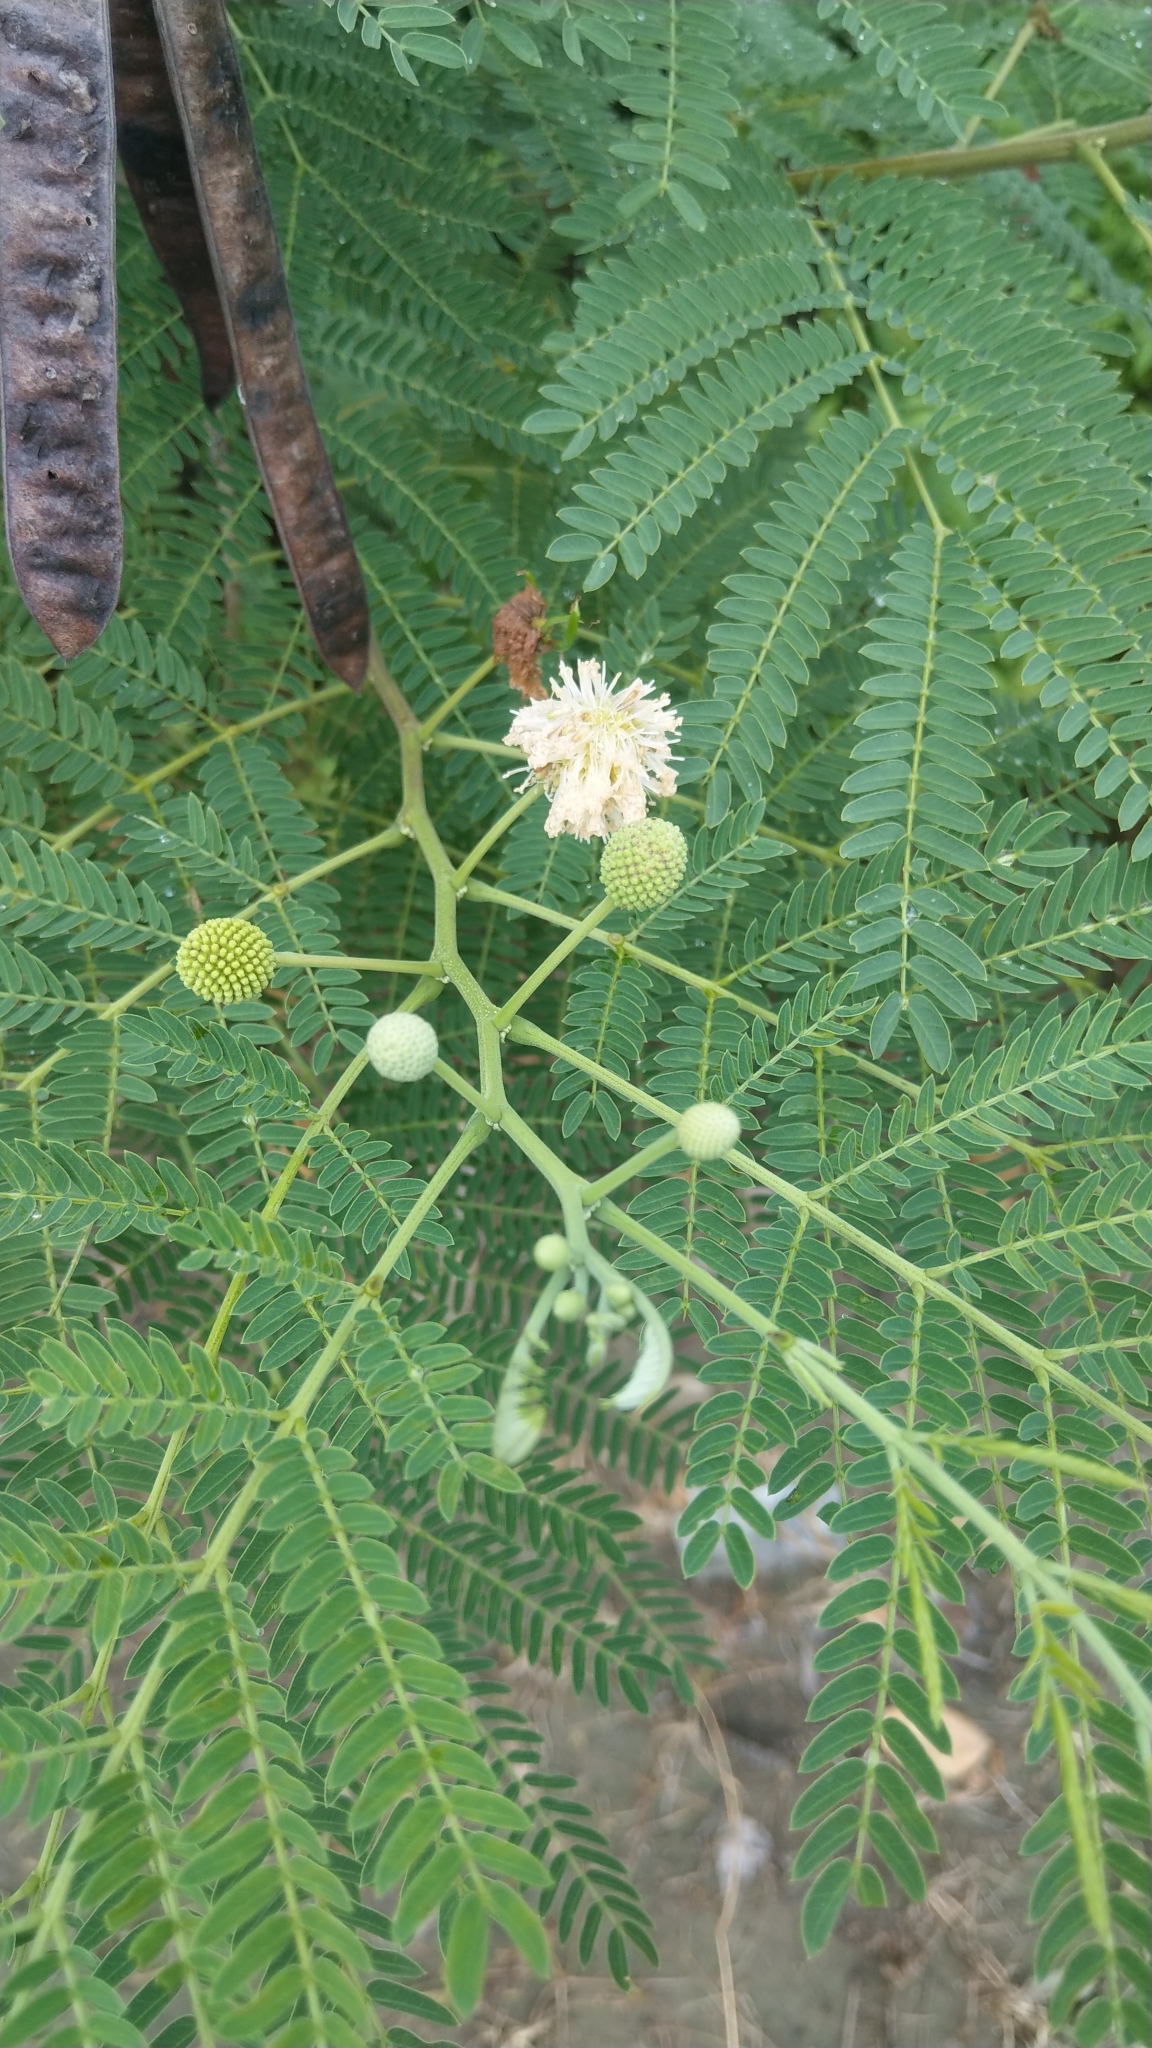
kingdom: Plantae
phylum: Tracheophyta
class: Magnoliopsida
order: Fabales
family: Fabaceae
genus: Leucaena
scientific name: Leucaena leucocephala
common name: White leadtree
